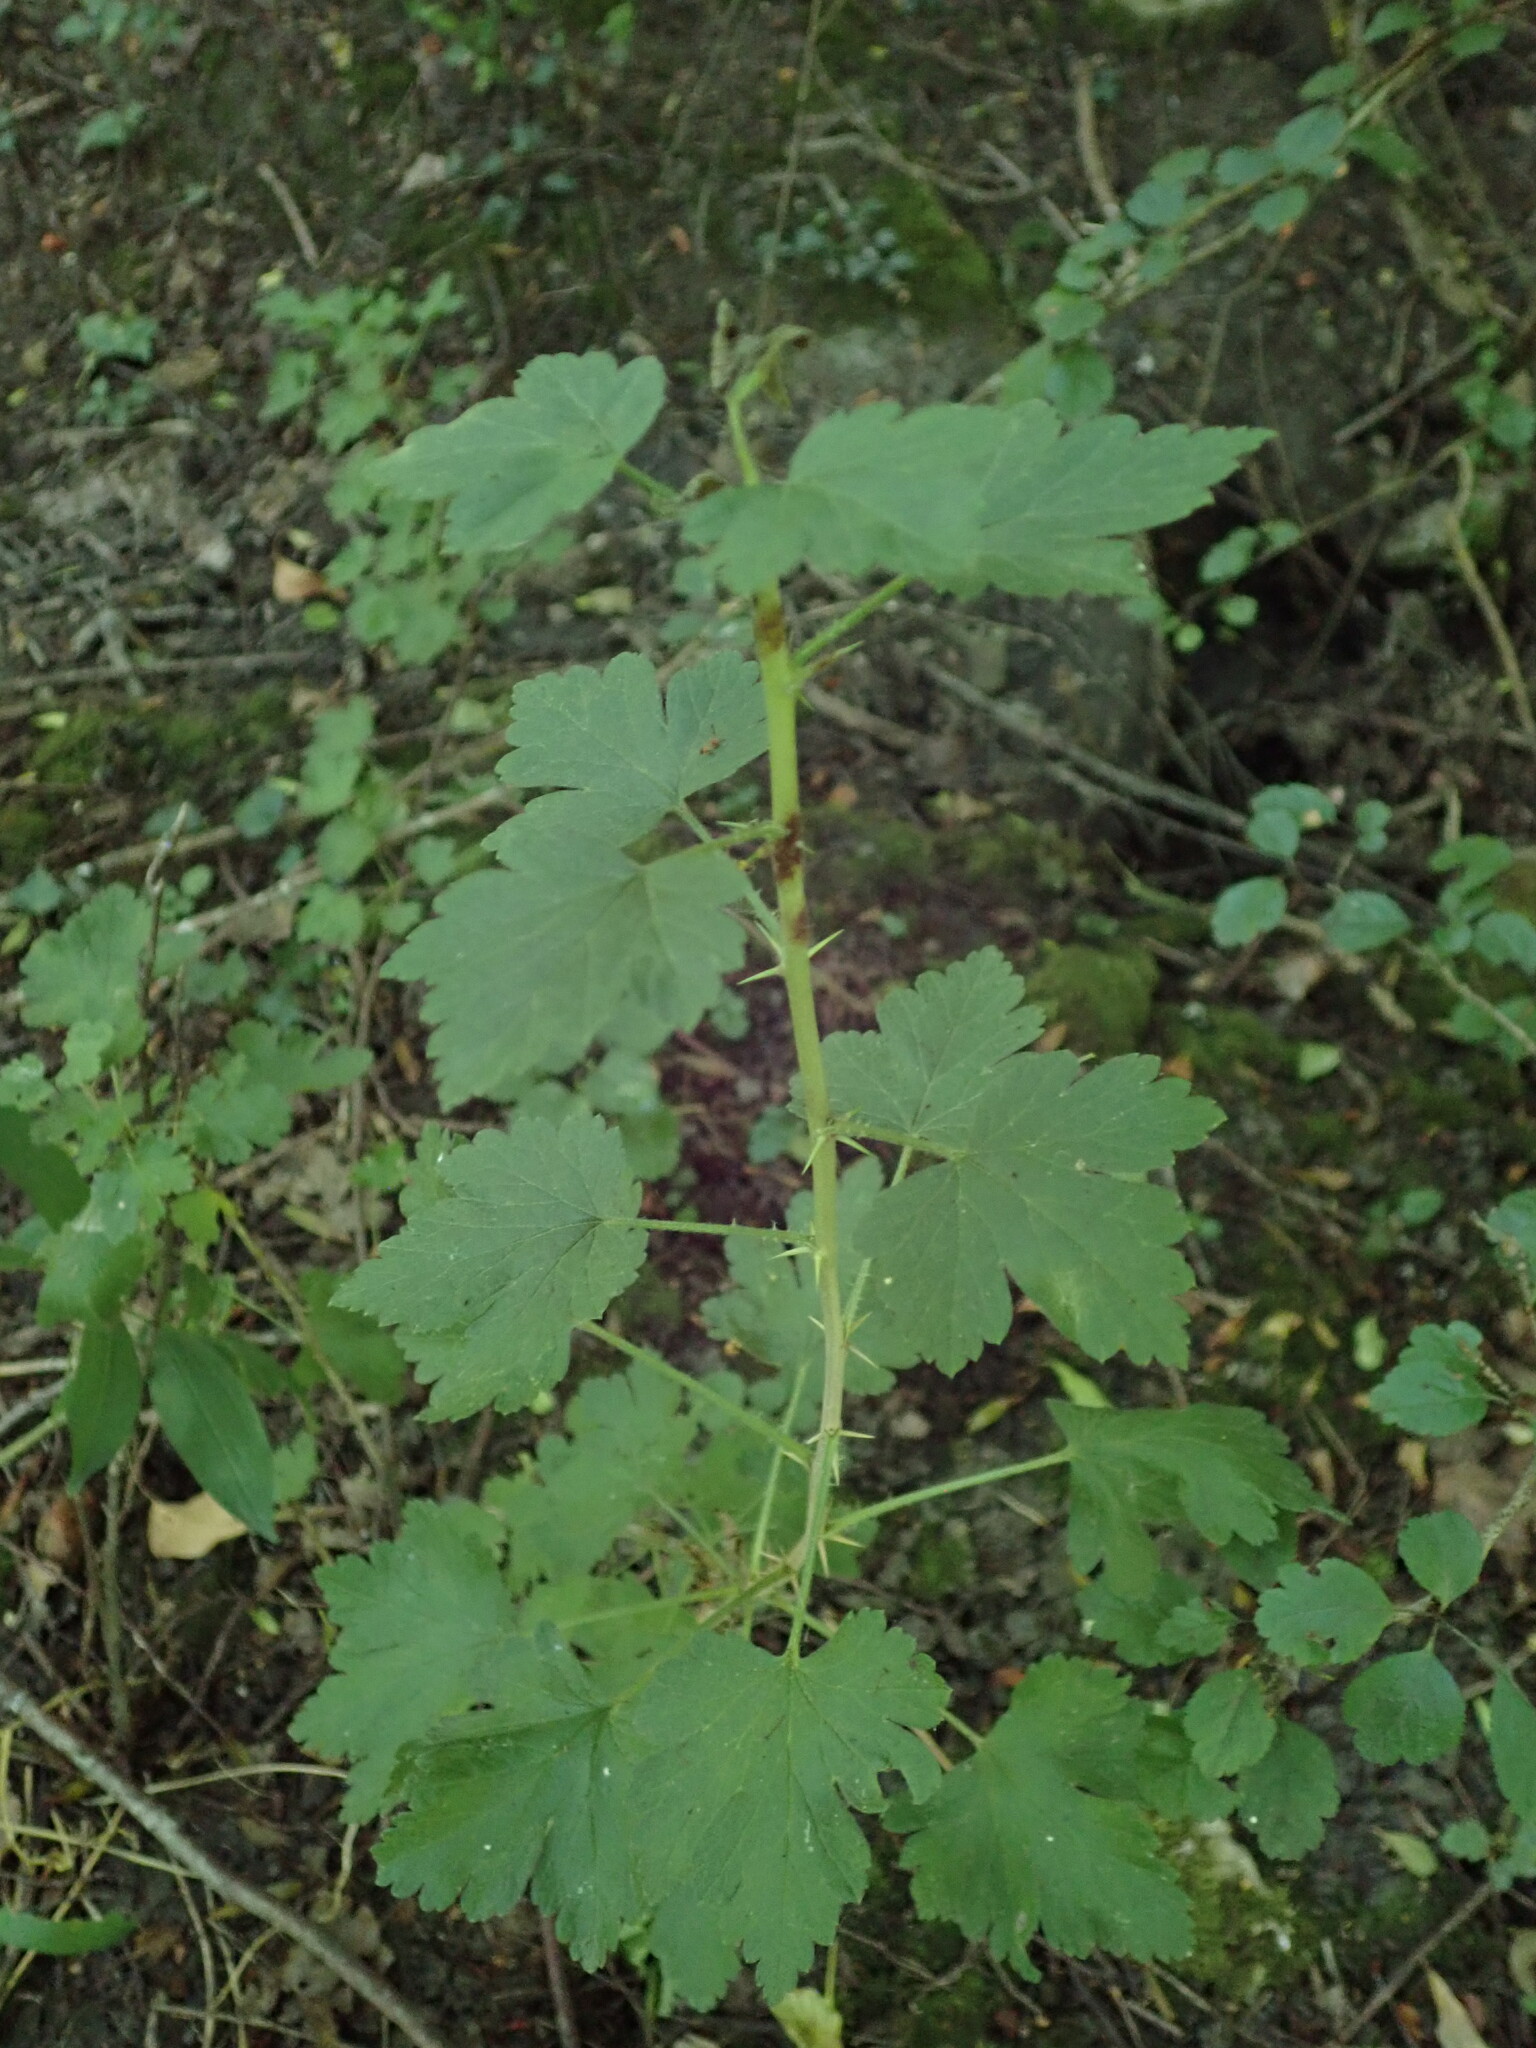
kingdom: Plantae
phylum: Tracheophyta
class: Magnoliopsida
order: Saxifragales
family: Grossulariaceae
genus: Ribes
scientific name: Ribes uva-crispa
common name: Gooseberry
